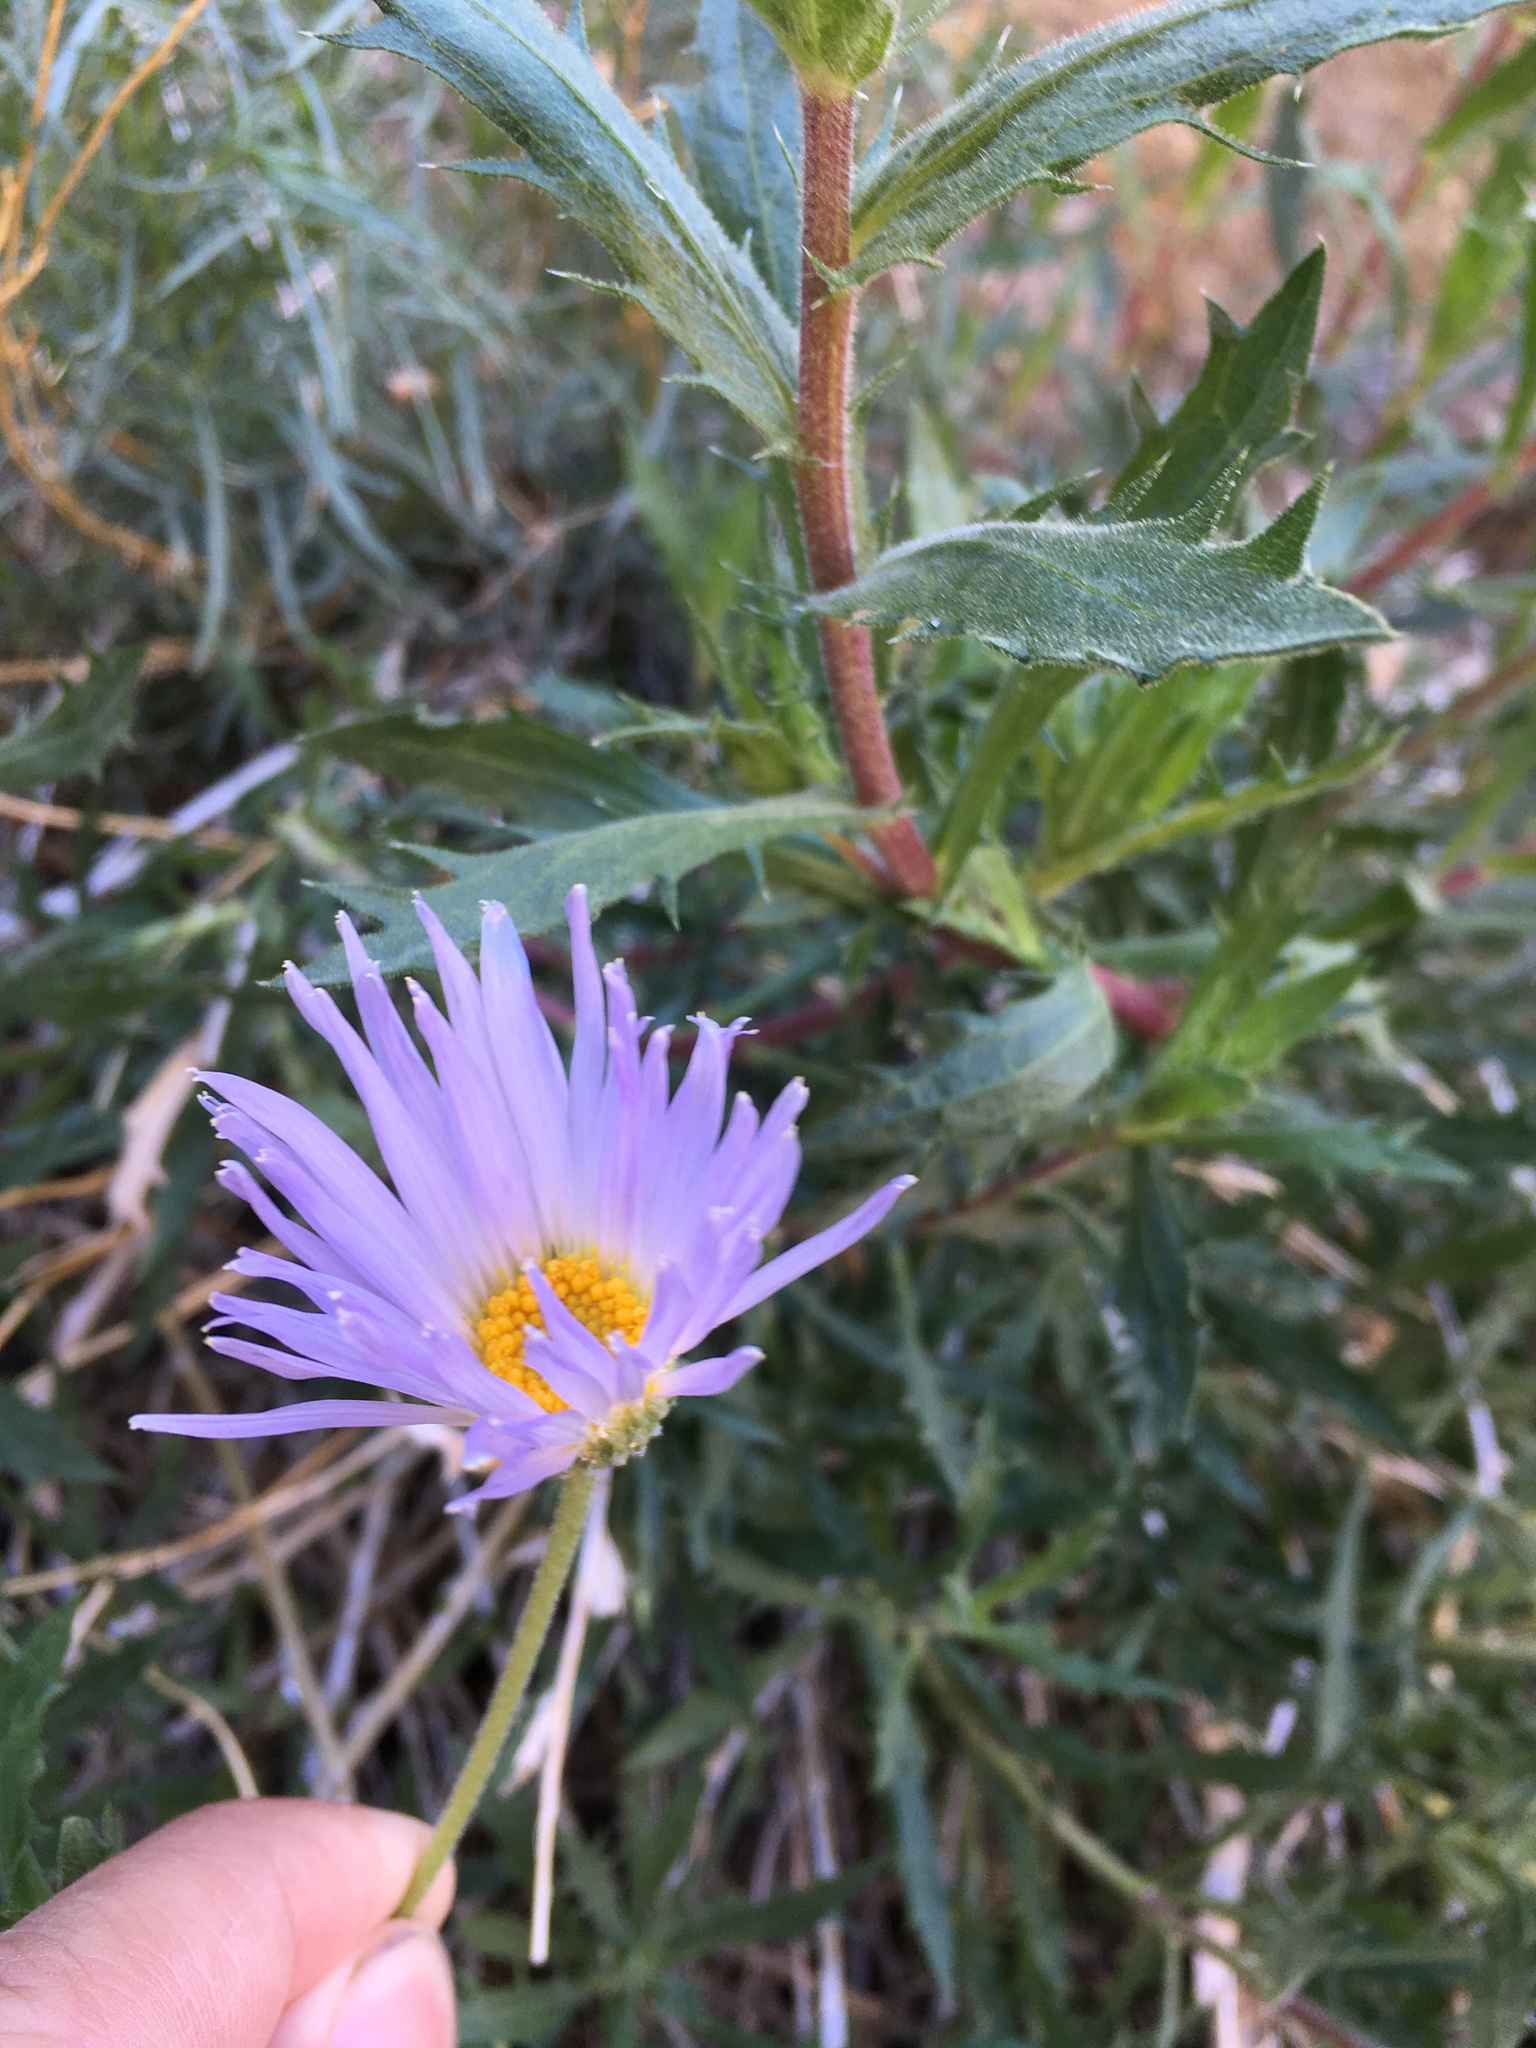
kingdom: Plantae
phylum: Tracheophyta
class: Magnoliopsida
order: Asterales
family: Asteraceae
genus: Xylorhiza
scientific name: Xylorhiza tortifolia
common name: Hurt-leaf woody-aster
